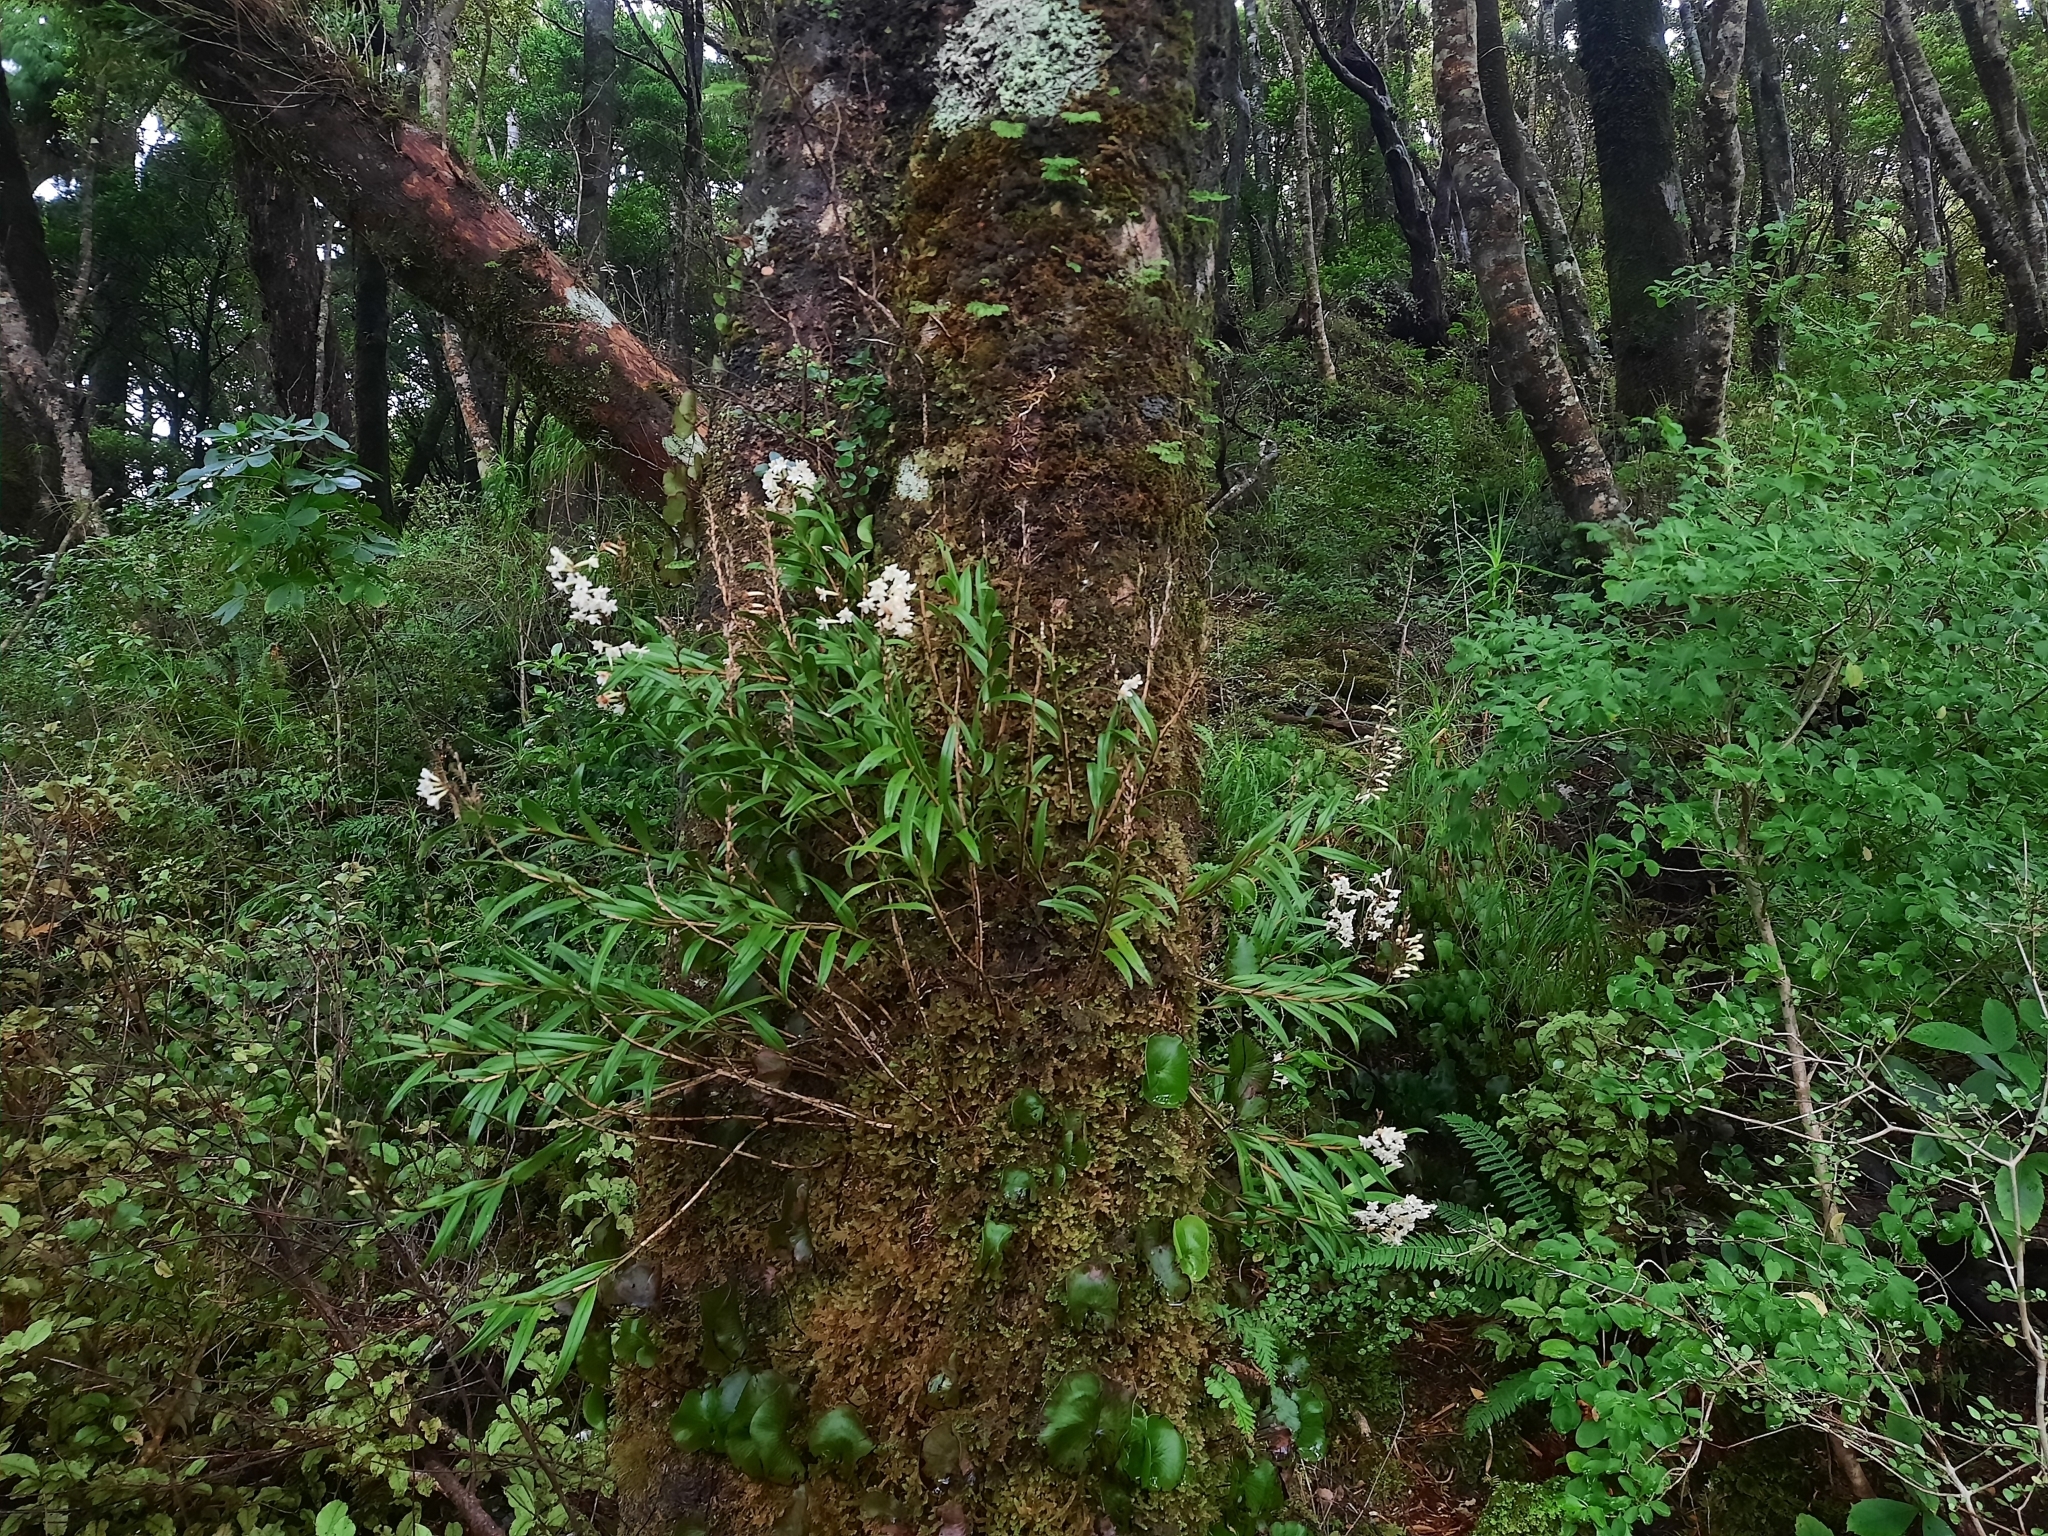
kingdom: Plantae
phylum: Tracheophyta
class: Liliopsida
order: Asparagales
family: Orchidaceae
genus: Earina
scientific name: Earina autumnalis
